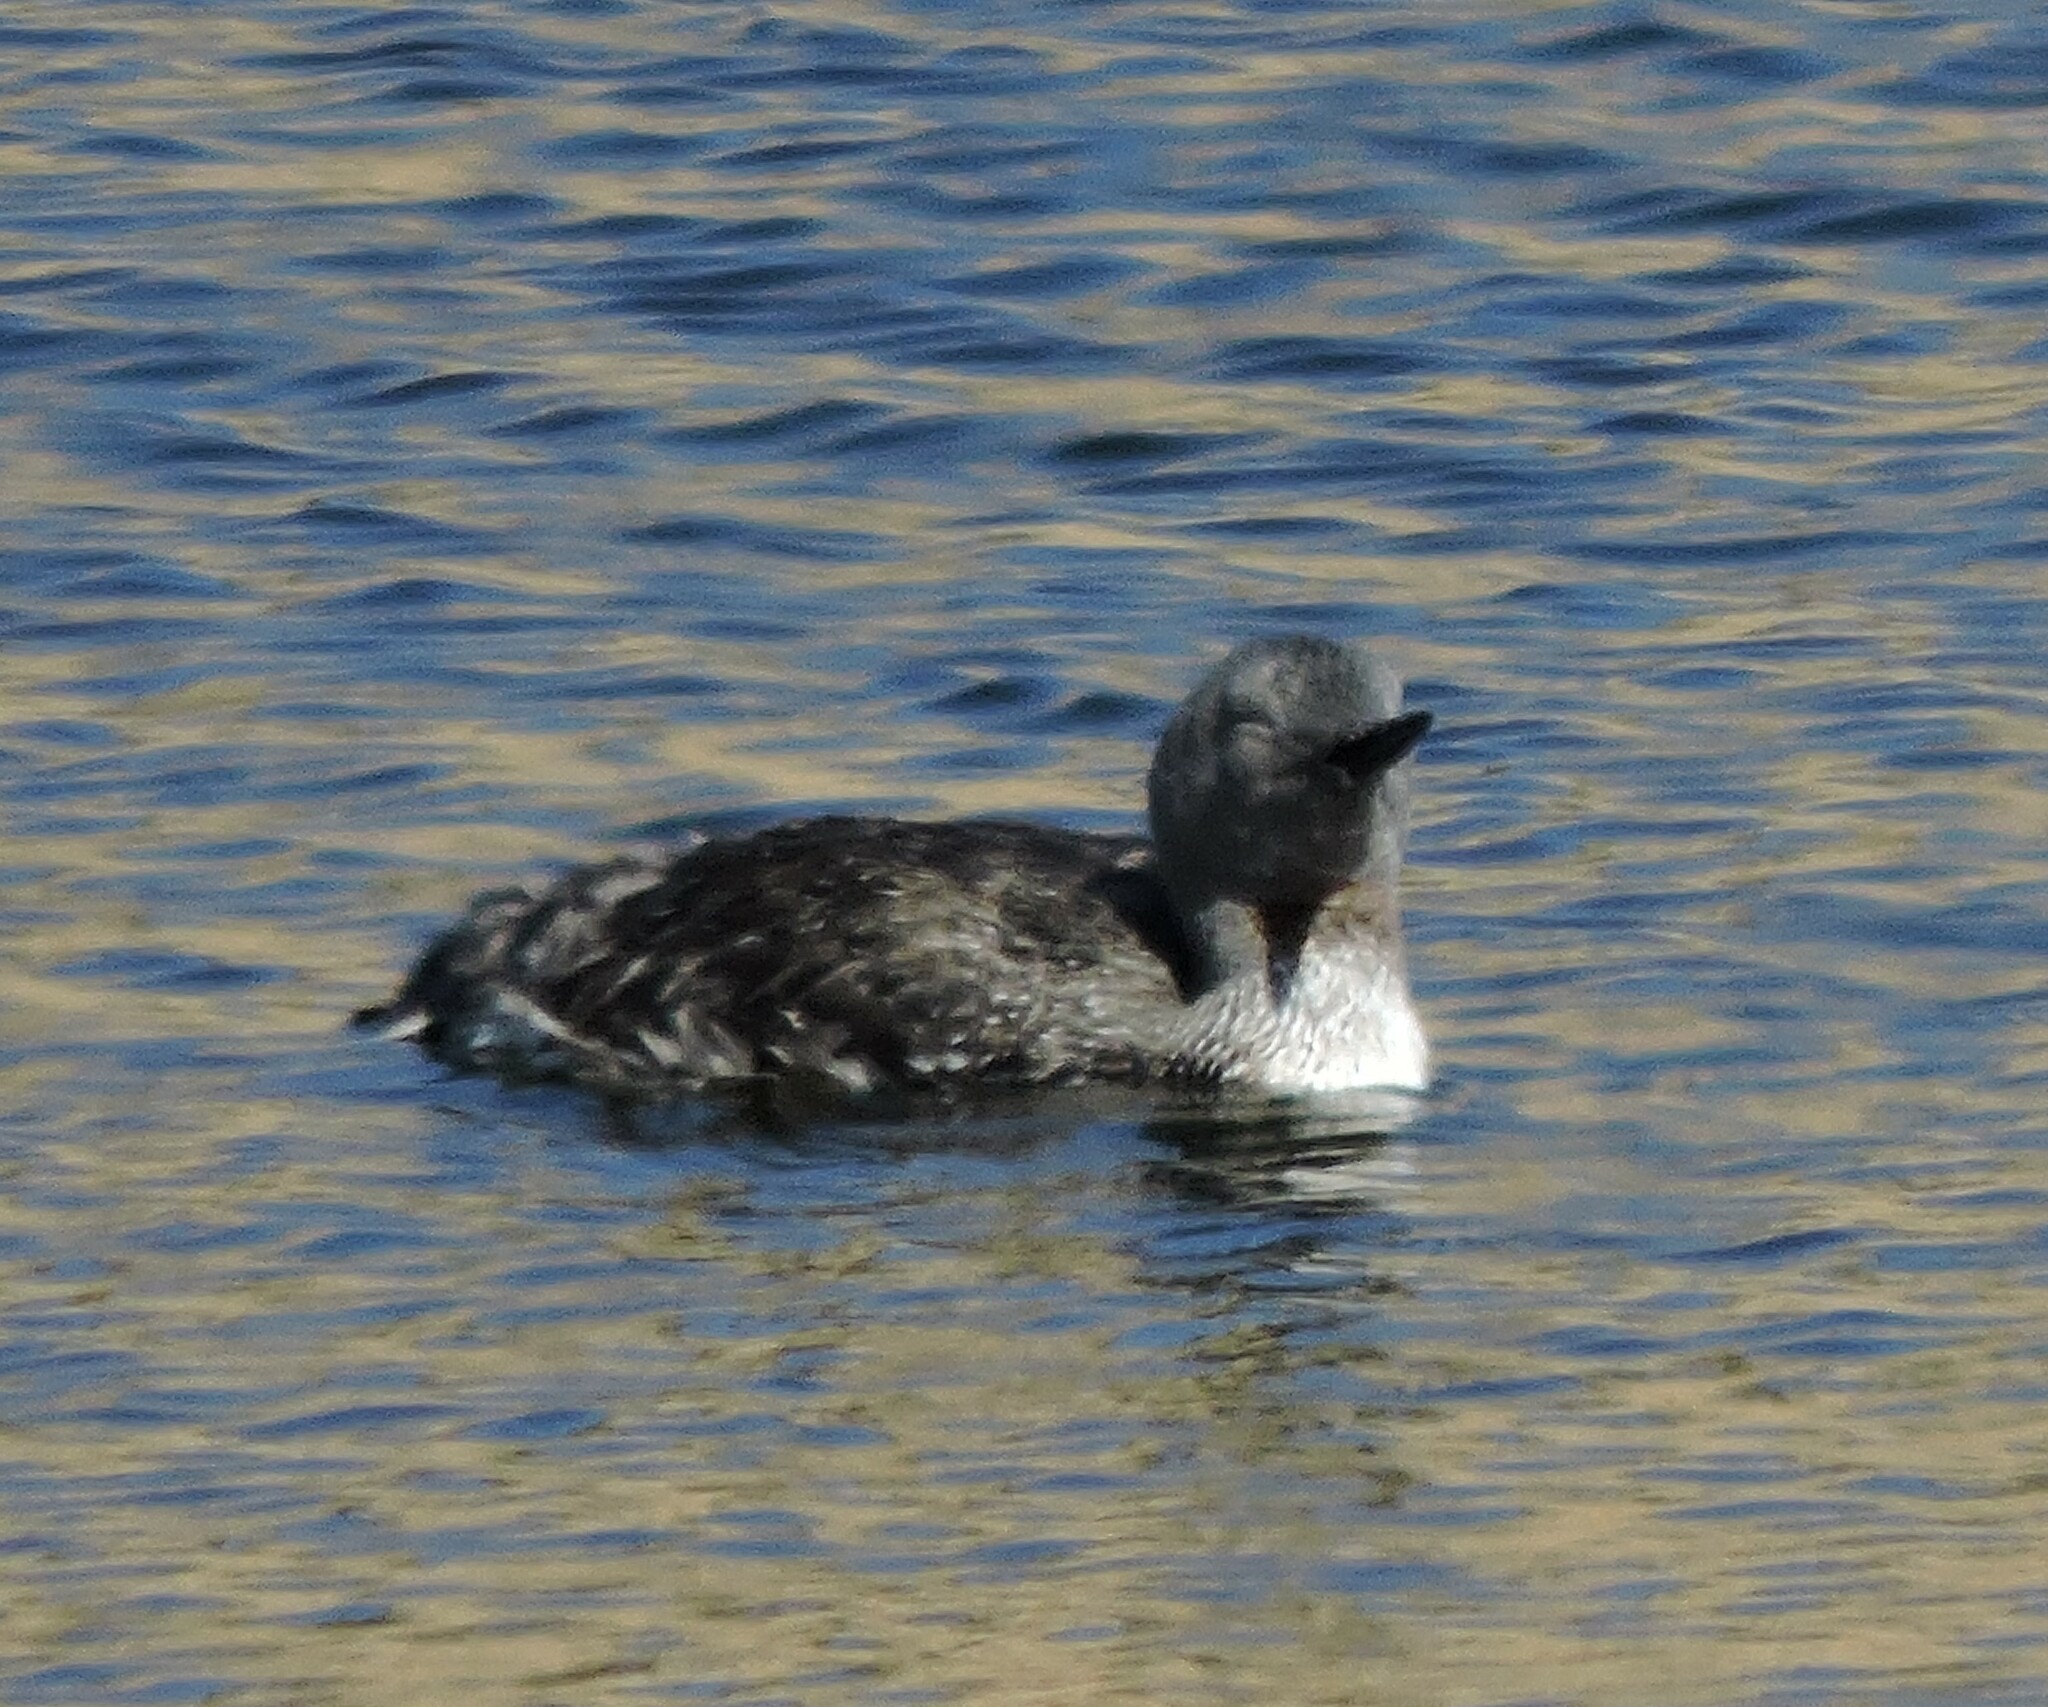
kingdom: Animalia
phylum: Chordata
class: Aves
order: Gaviiformes
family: Gaviidae
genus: Gavia
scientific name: Gavia stellata
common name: Red-throated loon
